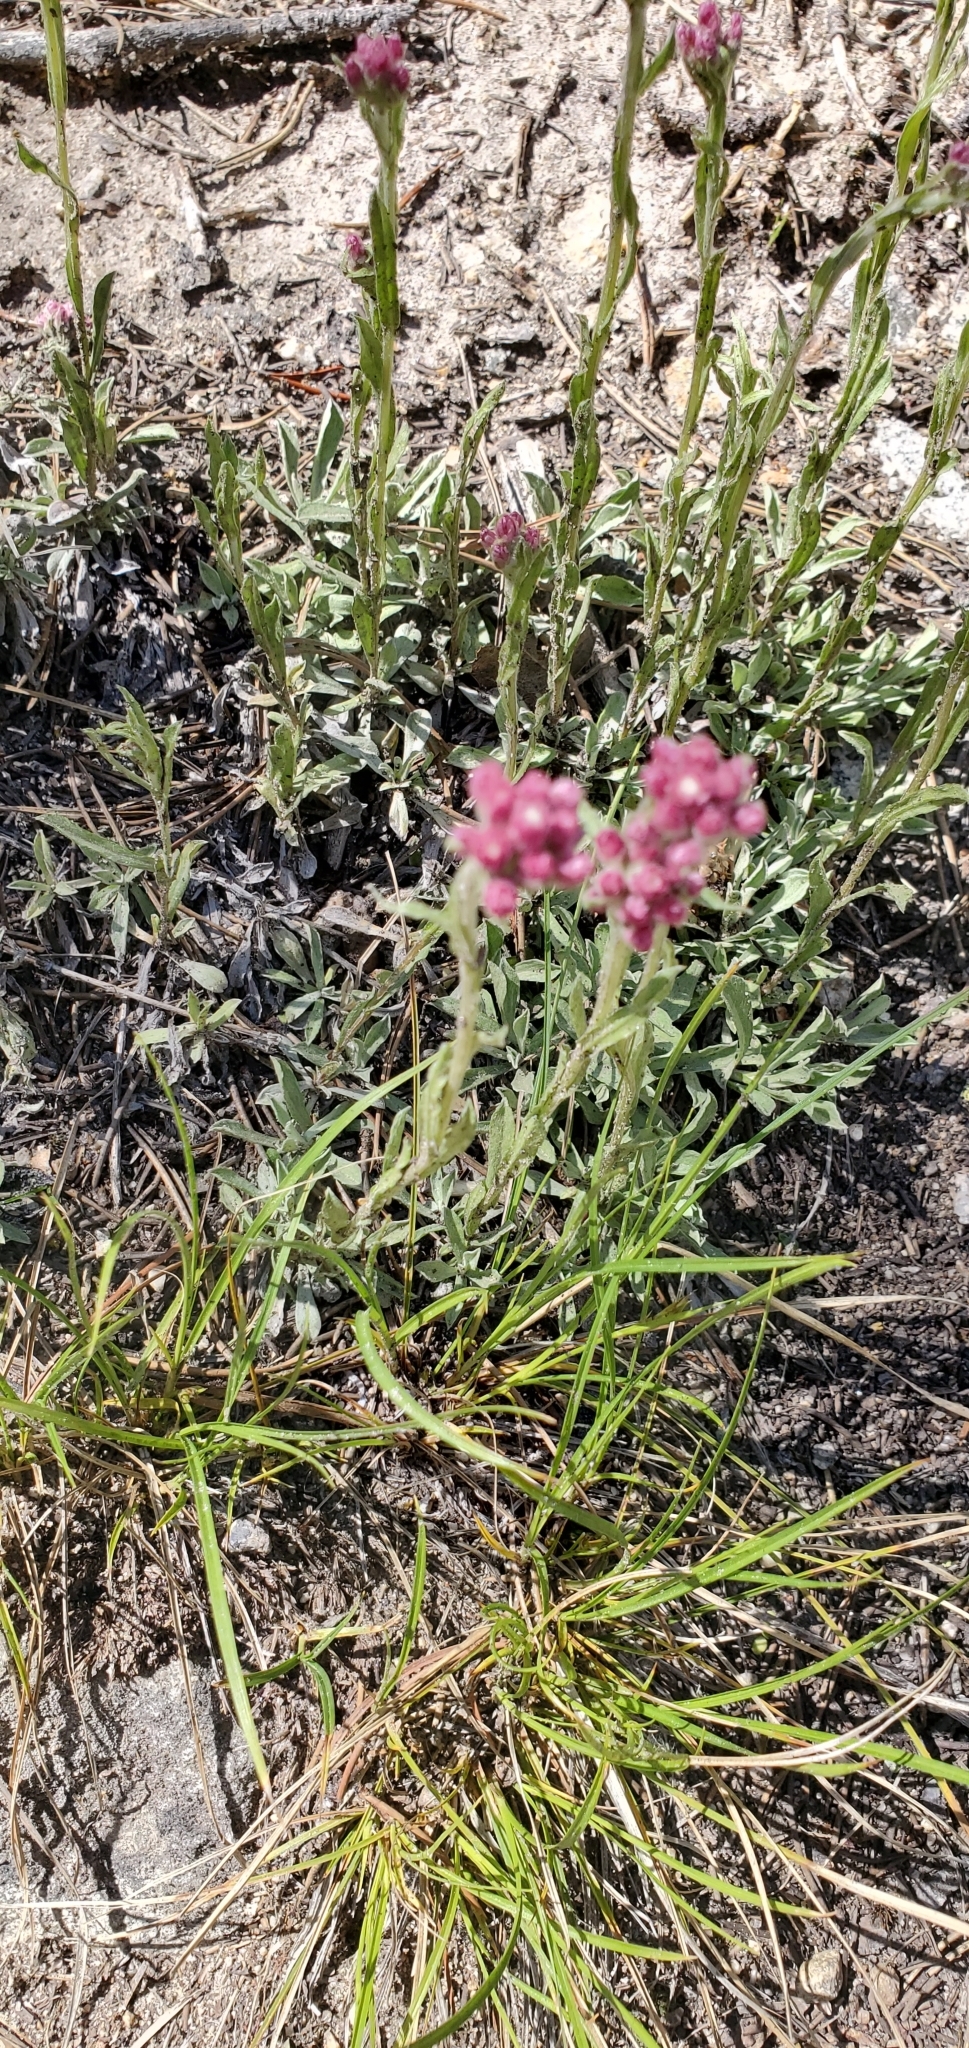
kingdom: Plantae
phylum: Tracheophyta
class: Magnoliopsida
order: Asterales
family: Asteraceae
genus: Antennaria
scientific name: Antennaria rosea
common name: Rosy pussytoes
